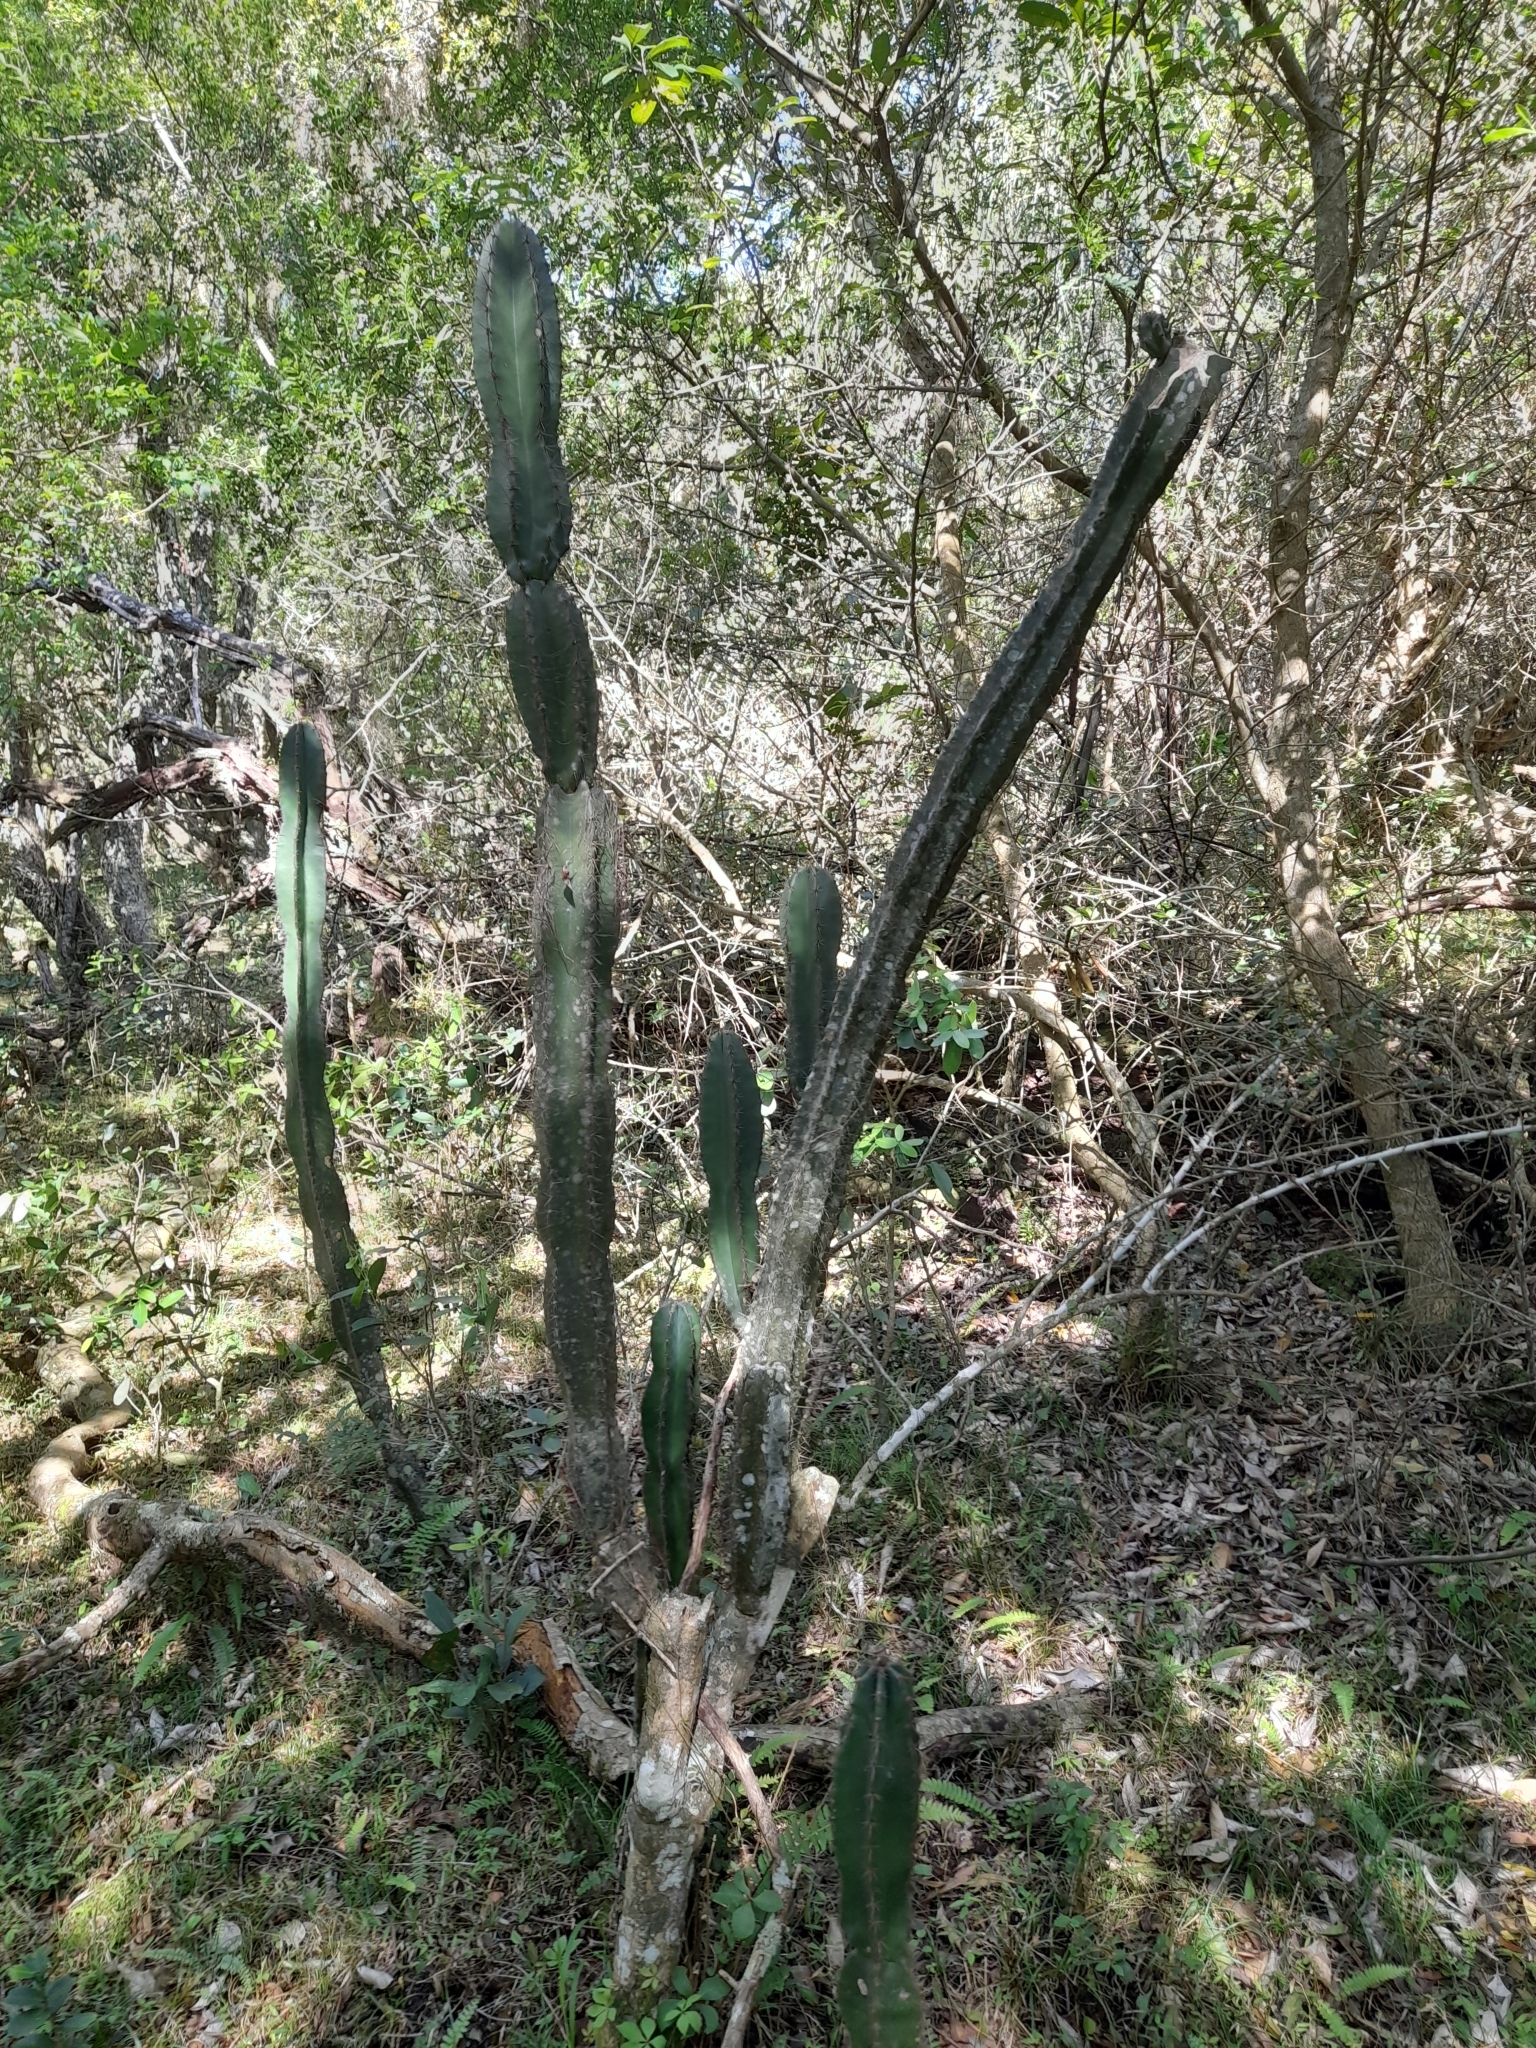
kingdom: Plantae
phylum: Tracheophyta
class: Magnoliopsida
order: Caryophyllales
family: Cactaceae
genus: Cereus
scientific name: Cereus hildmannianus
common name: Hedge cactus
